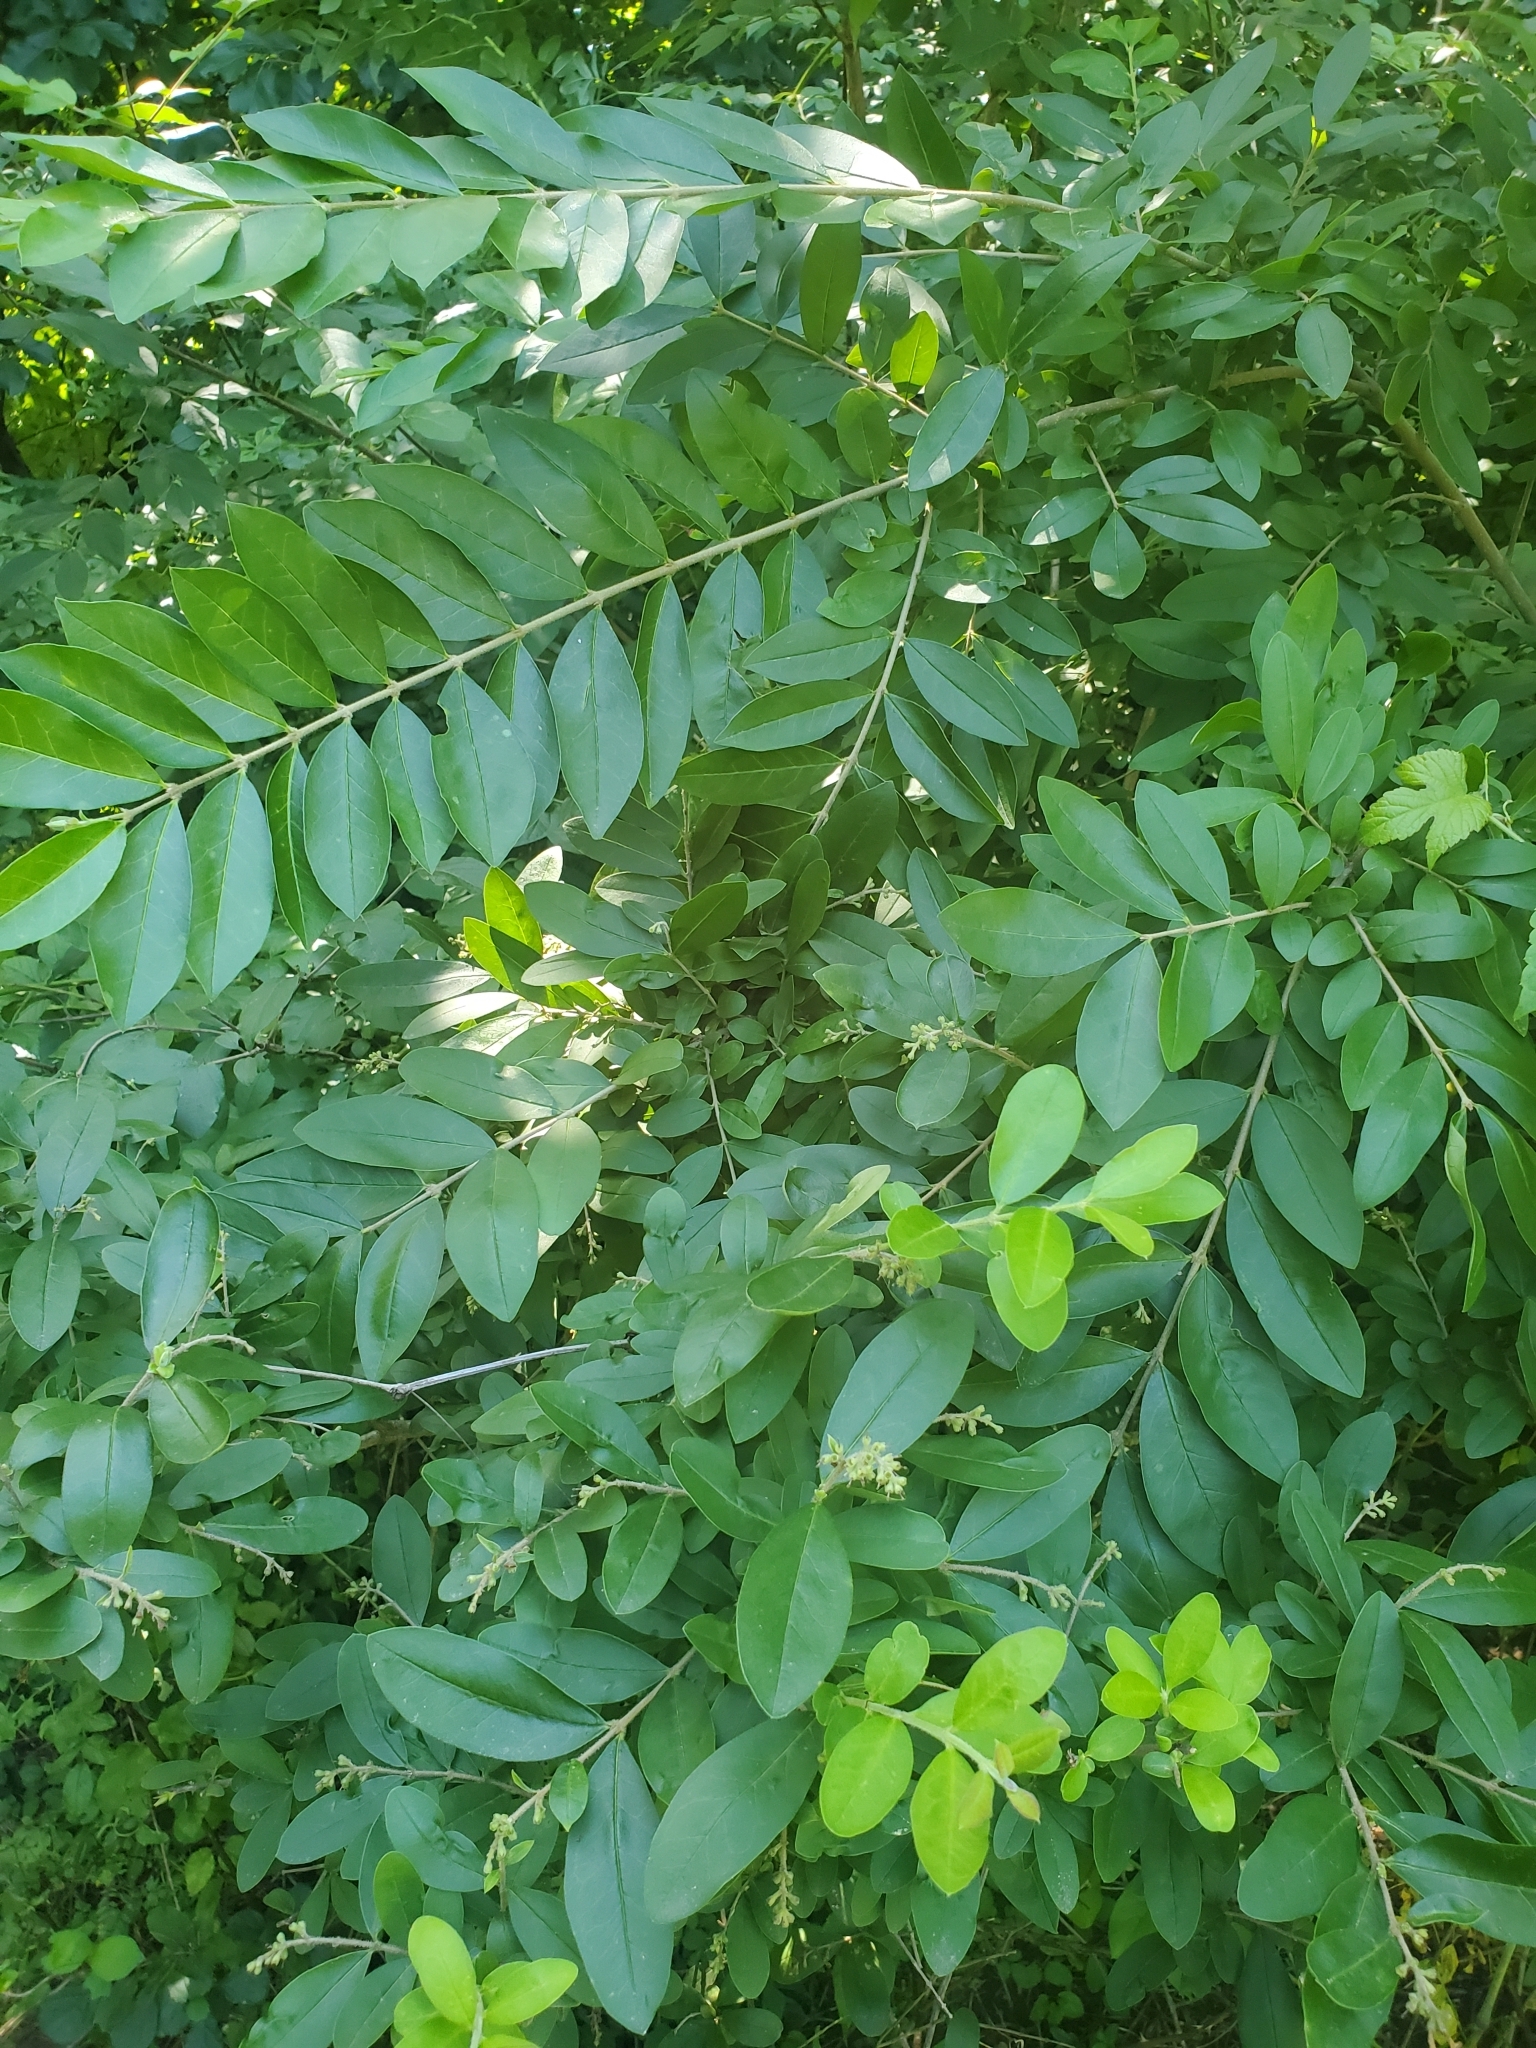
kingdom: Plantae
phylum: Tracheophyta
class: Magnoliopsida
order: Lamiales
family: Oleaceae
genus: Ligustrum
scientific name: Ligustrum obtusifolium
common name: Border privet
